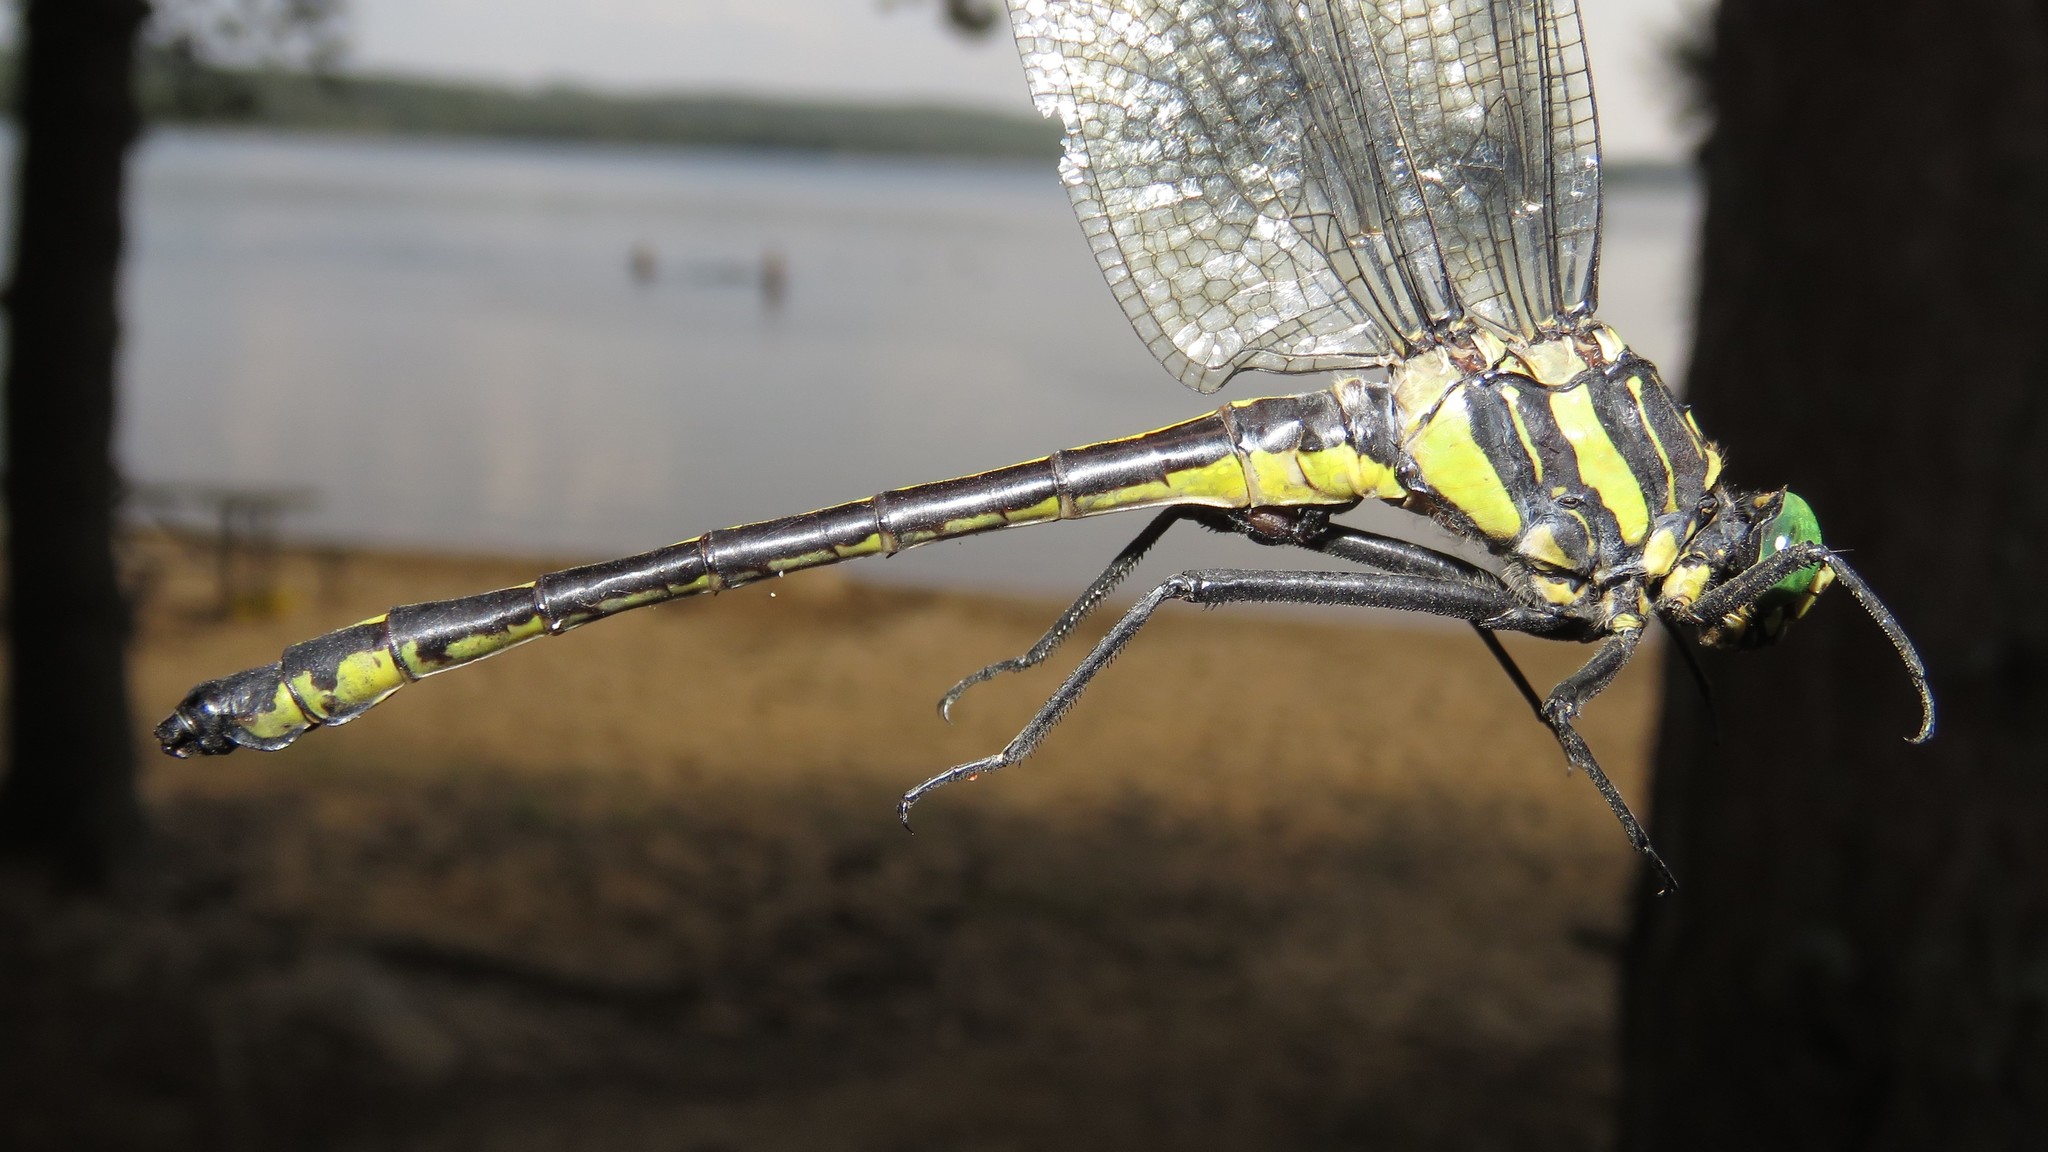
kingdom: Animalia
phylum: Arthropoda
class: Insecta
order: Odonata
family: Gomphidae
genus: Hagenius
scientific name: Hagenius brevistylus
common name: Dragonhunter
